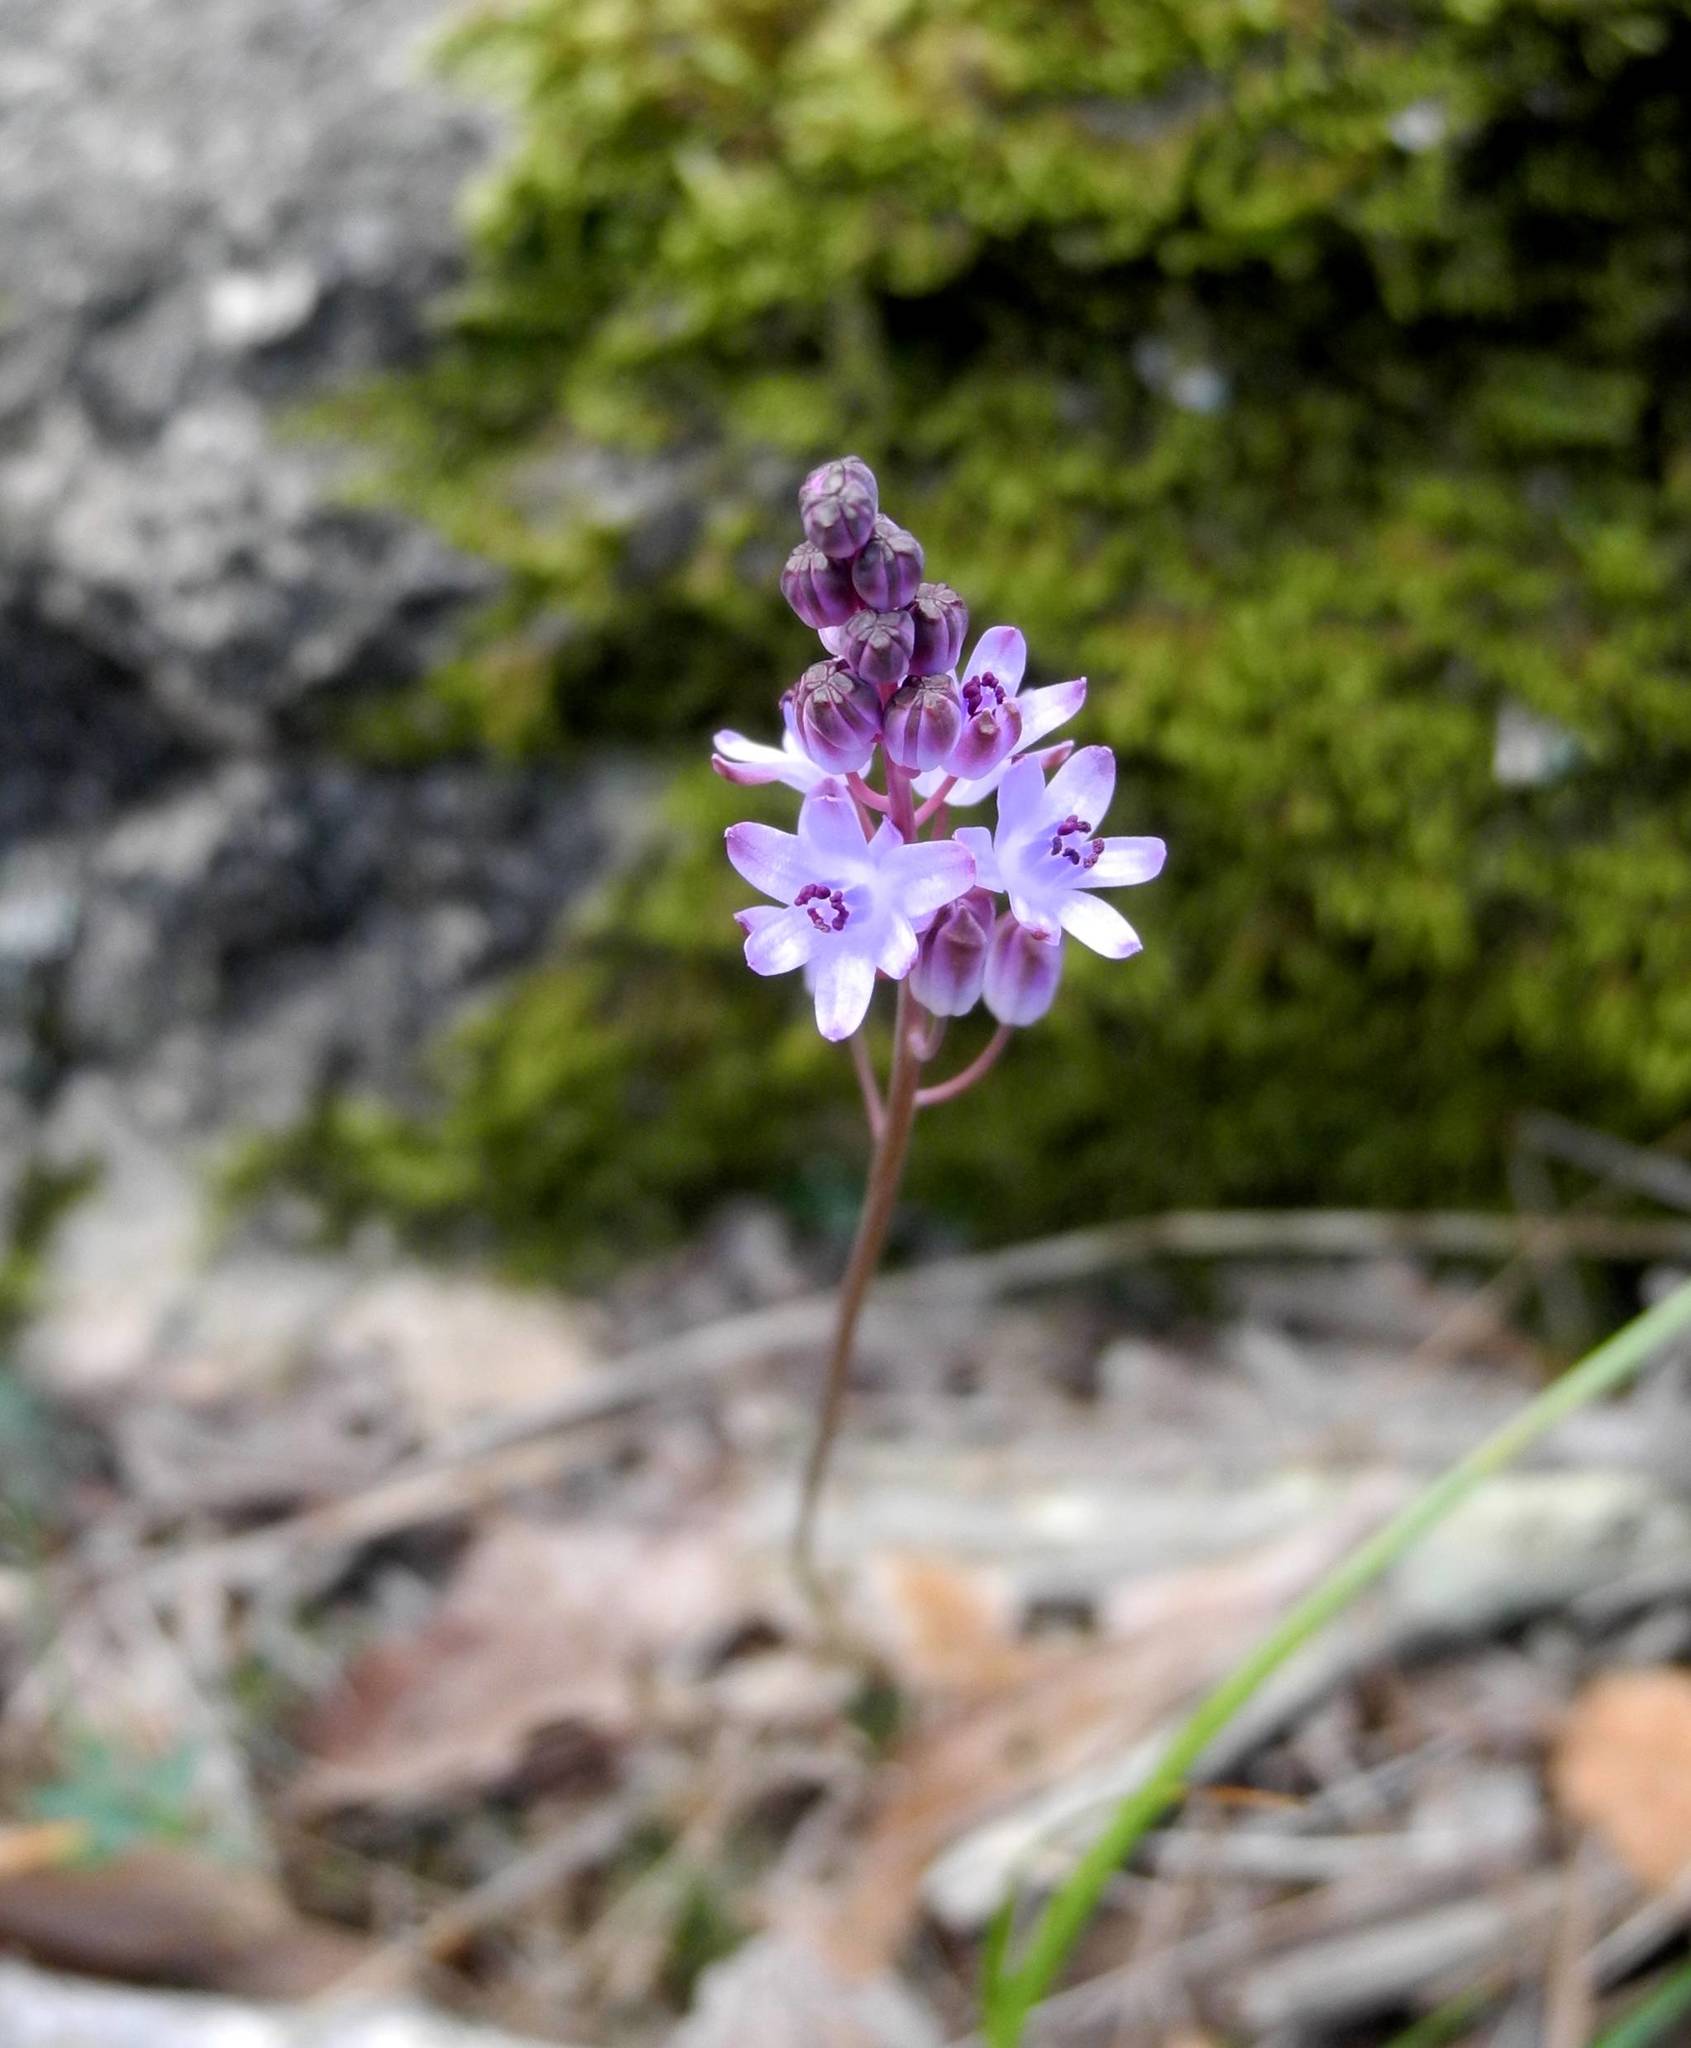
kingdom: Plantae
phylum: Tracheophyta
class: Liliopsida
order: Asparagales
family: Asparagaceae
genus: Prospero
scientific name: Prospero autumnale
